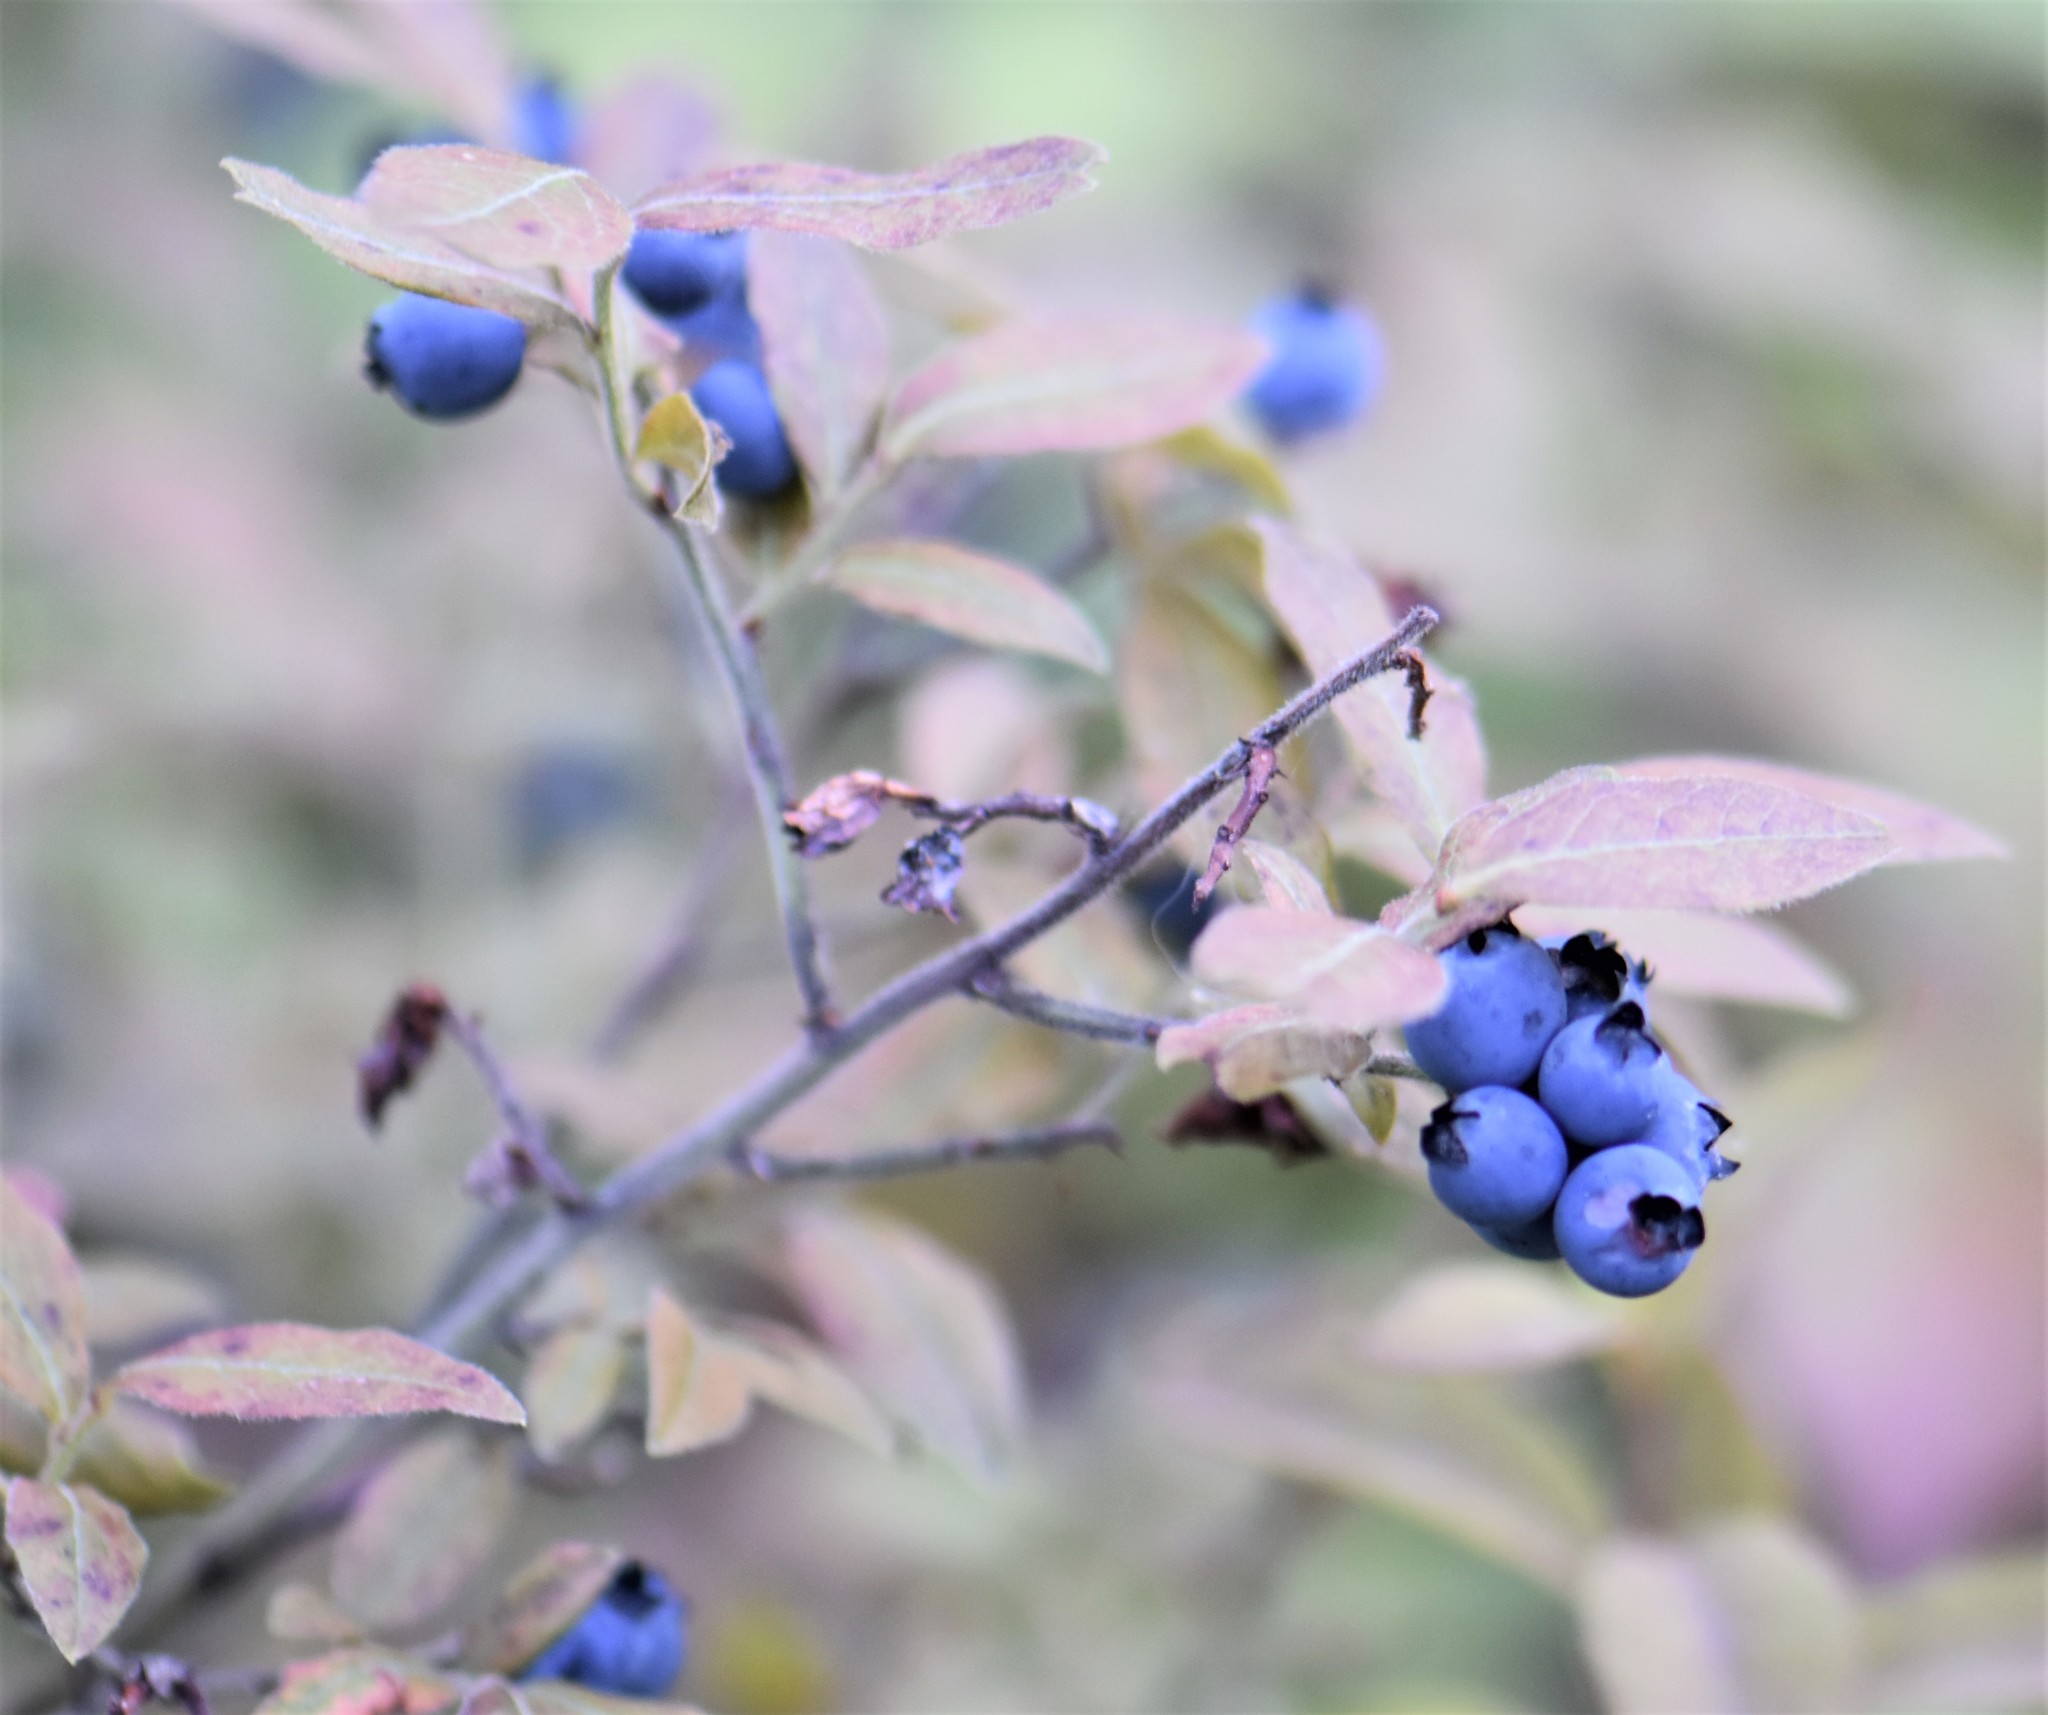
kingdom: Plantae
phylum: Tracheophyta
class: Magnoliopsida
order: Ericales
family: Ericaceae
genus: Vaccinium
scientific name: Vaccinium myrtilloides
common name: Canada blueberry
